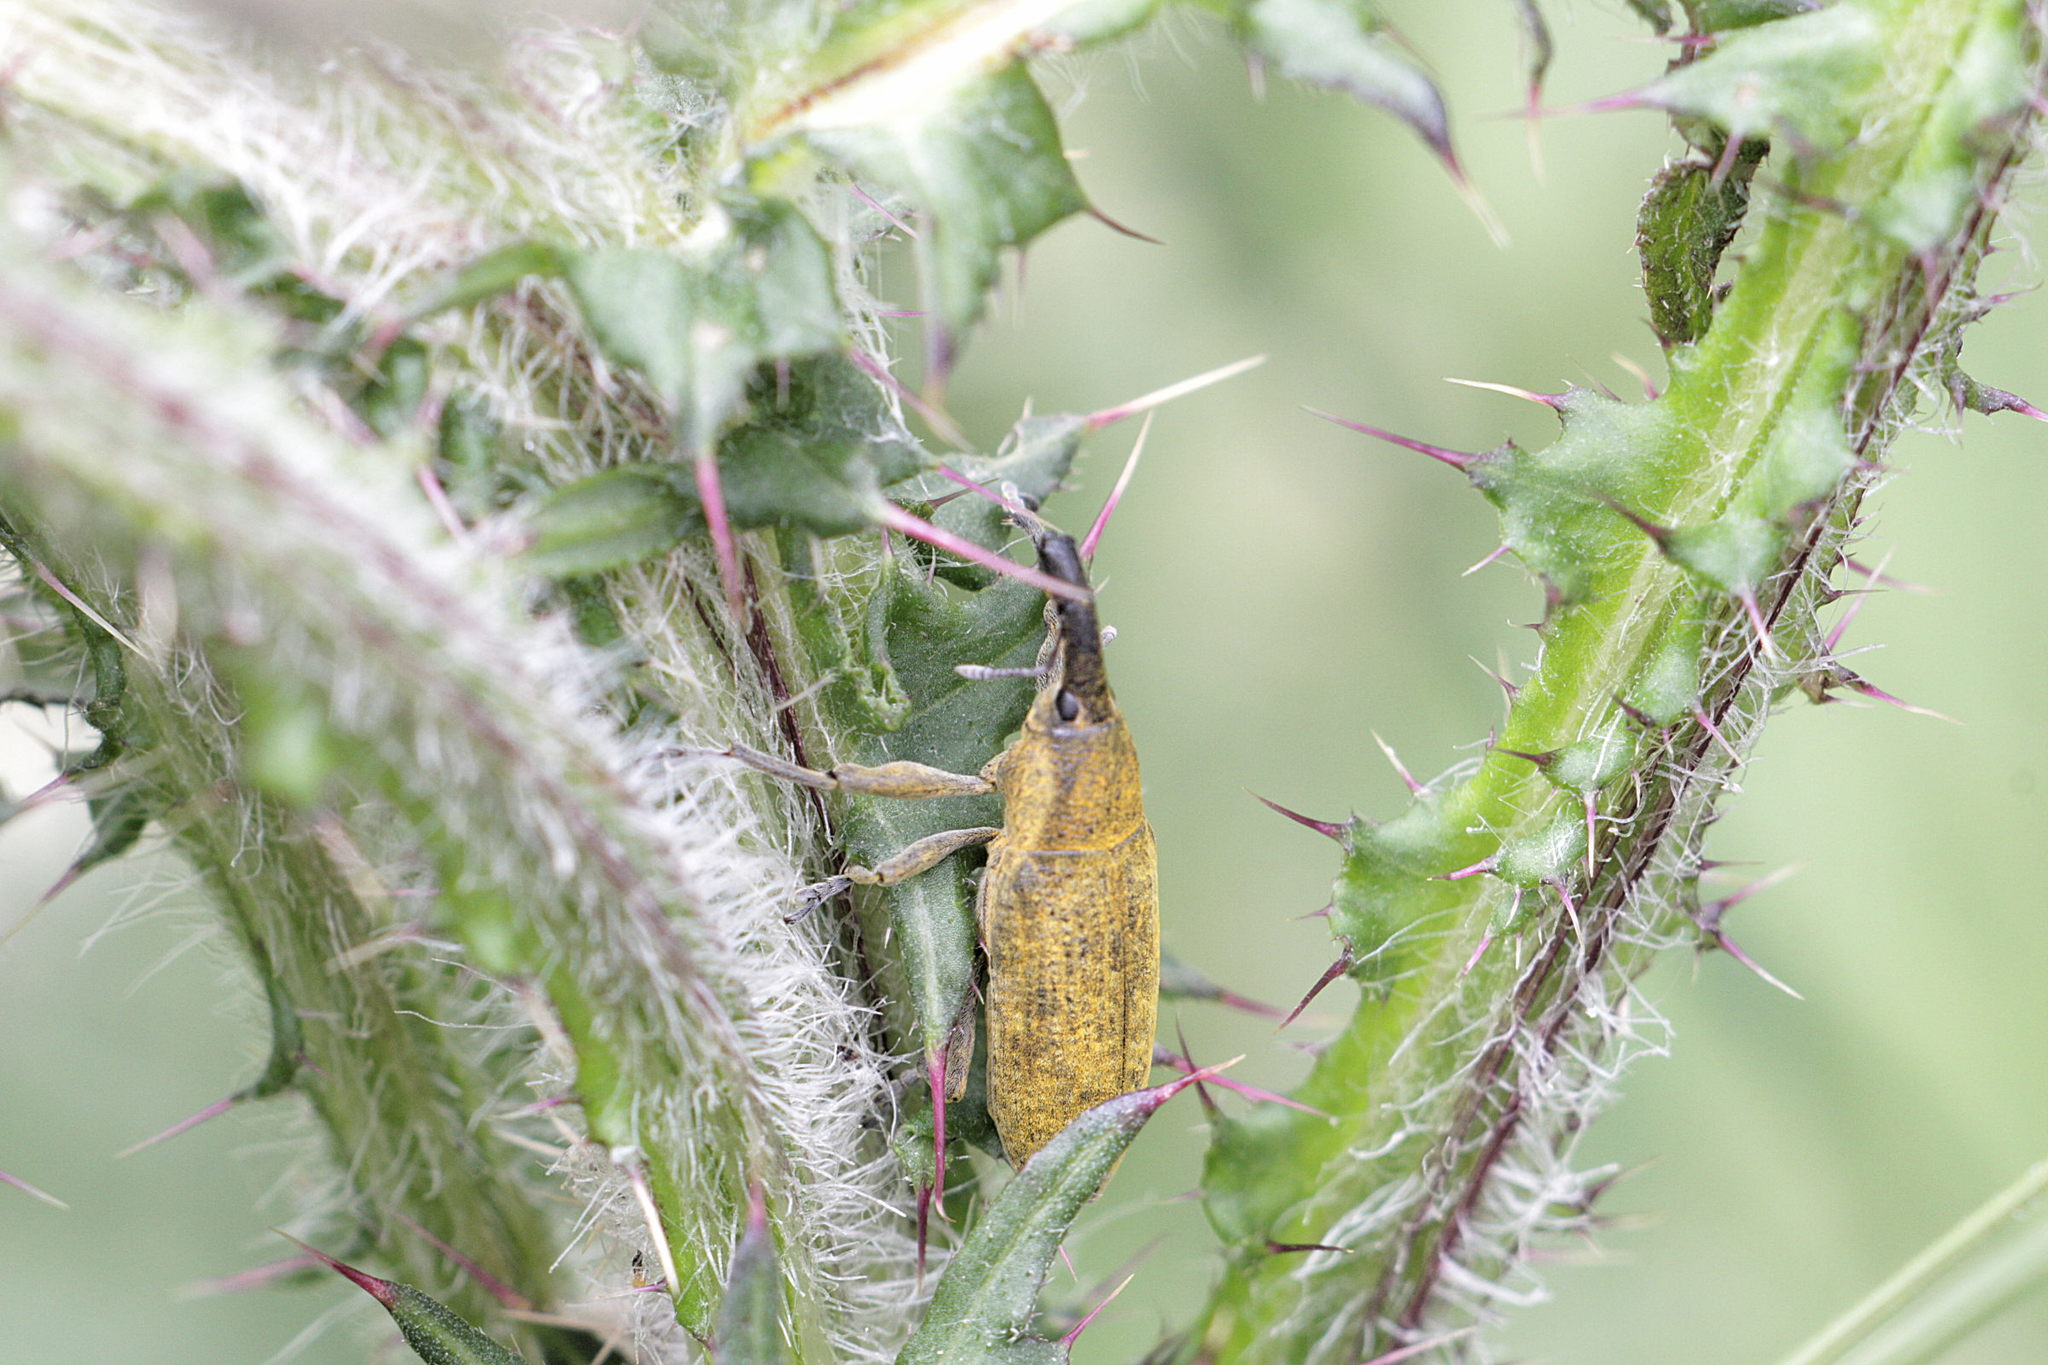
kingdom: Animalia
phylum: Arthropoda
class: Insecta
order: Coleoptera
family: Curculionidae
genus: Lixus
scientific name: Lixus
